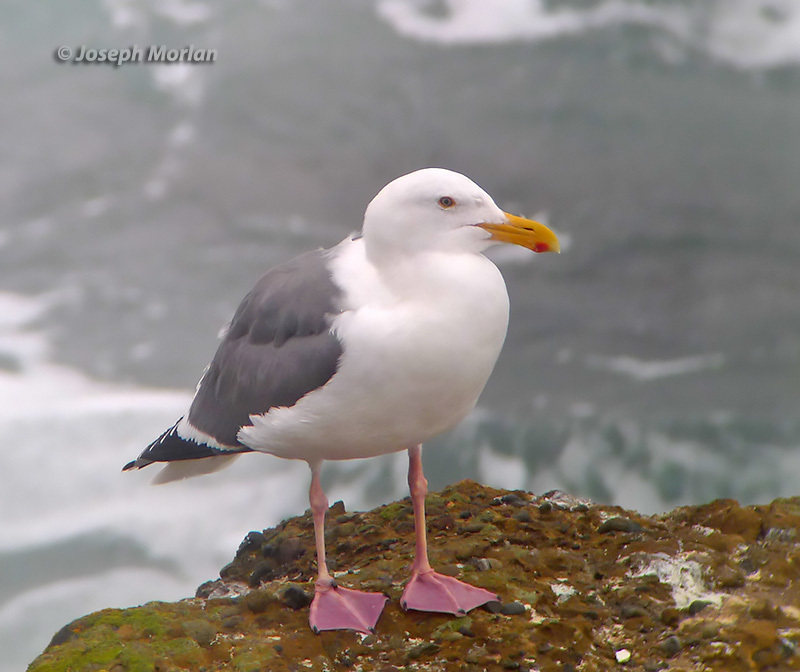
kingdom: Animalia
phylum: Chordata
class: Aves
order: Charadriiformes
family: Laridae
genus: Larus
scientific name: Larus occidentalis
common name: Western gull
